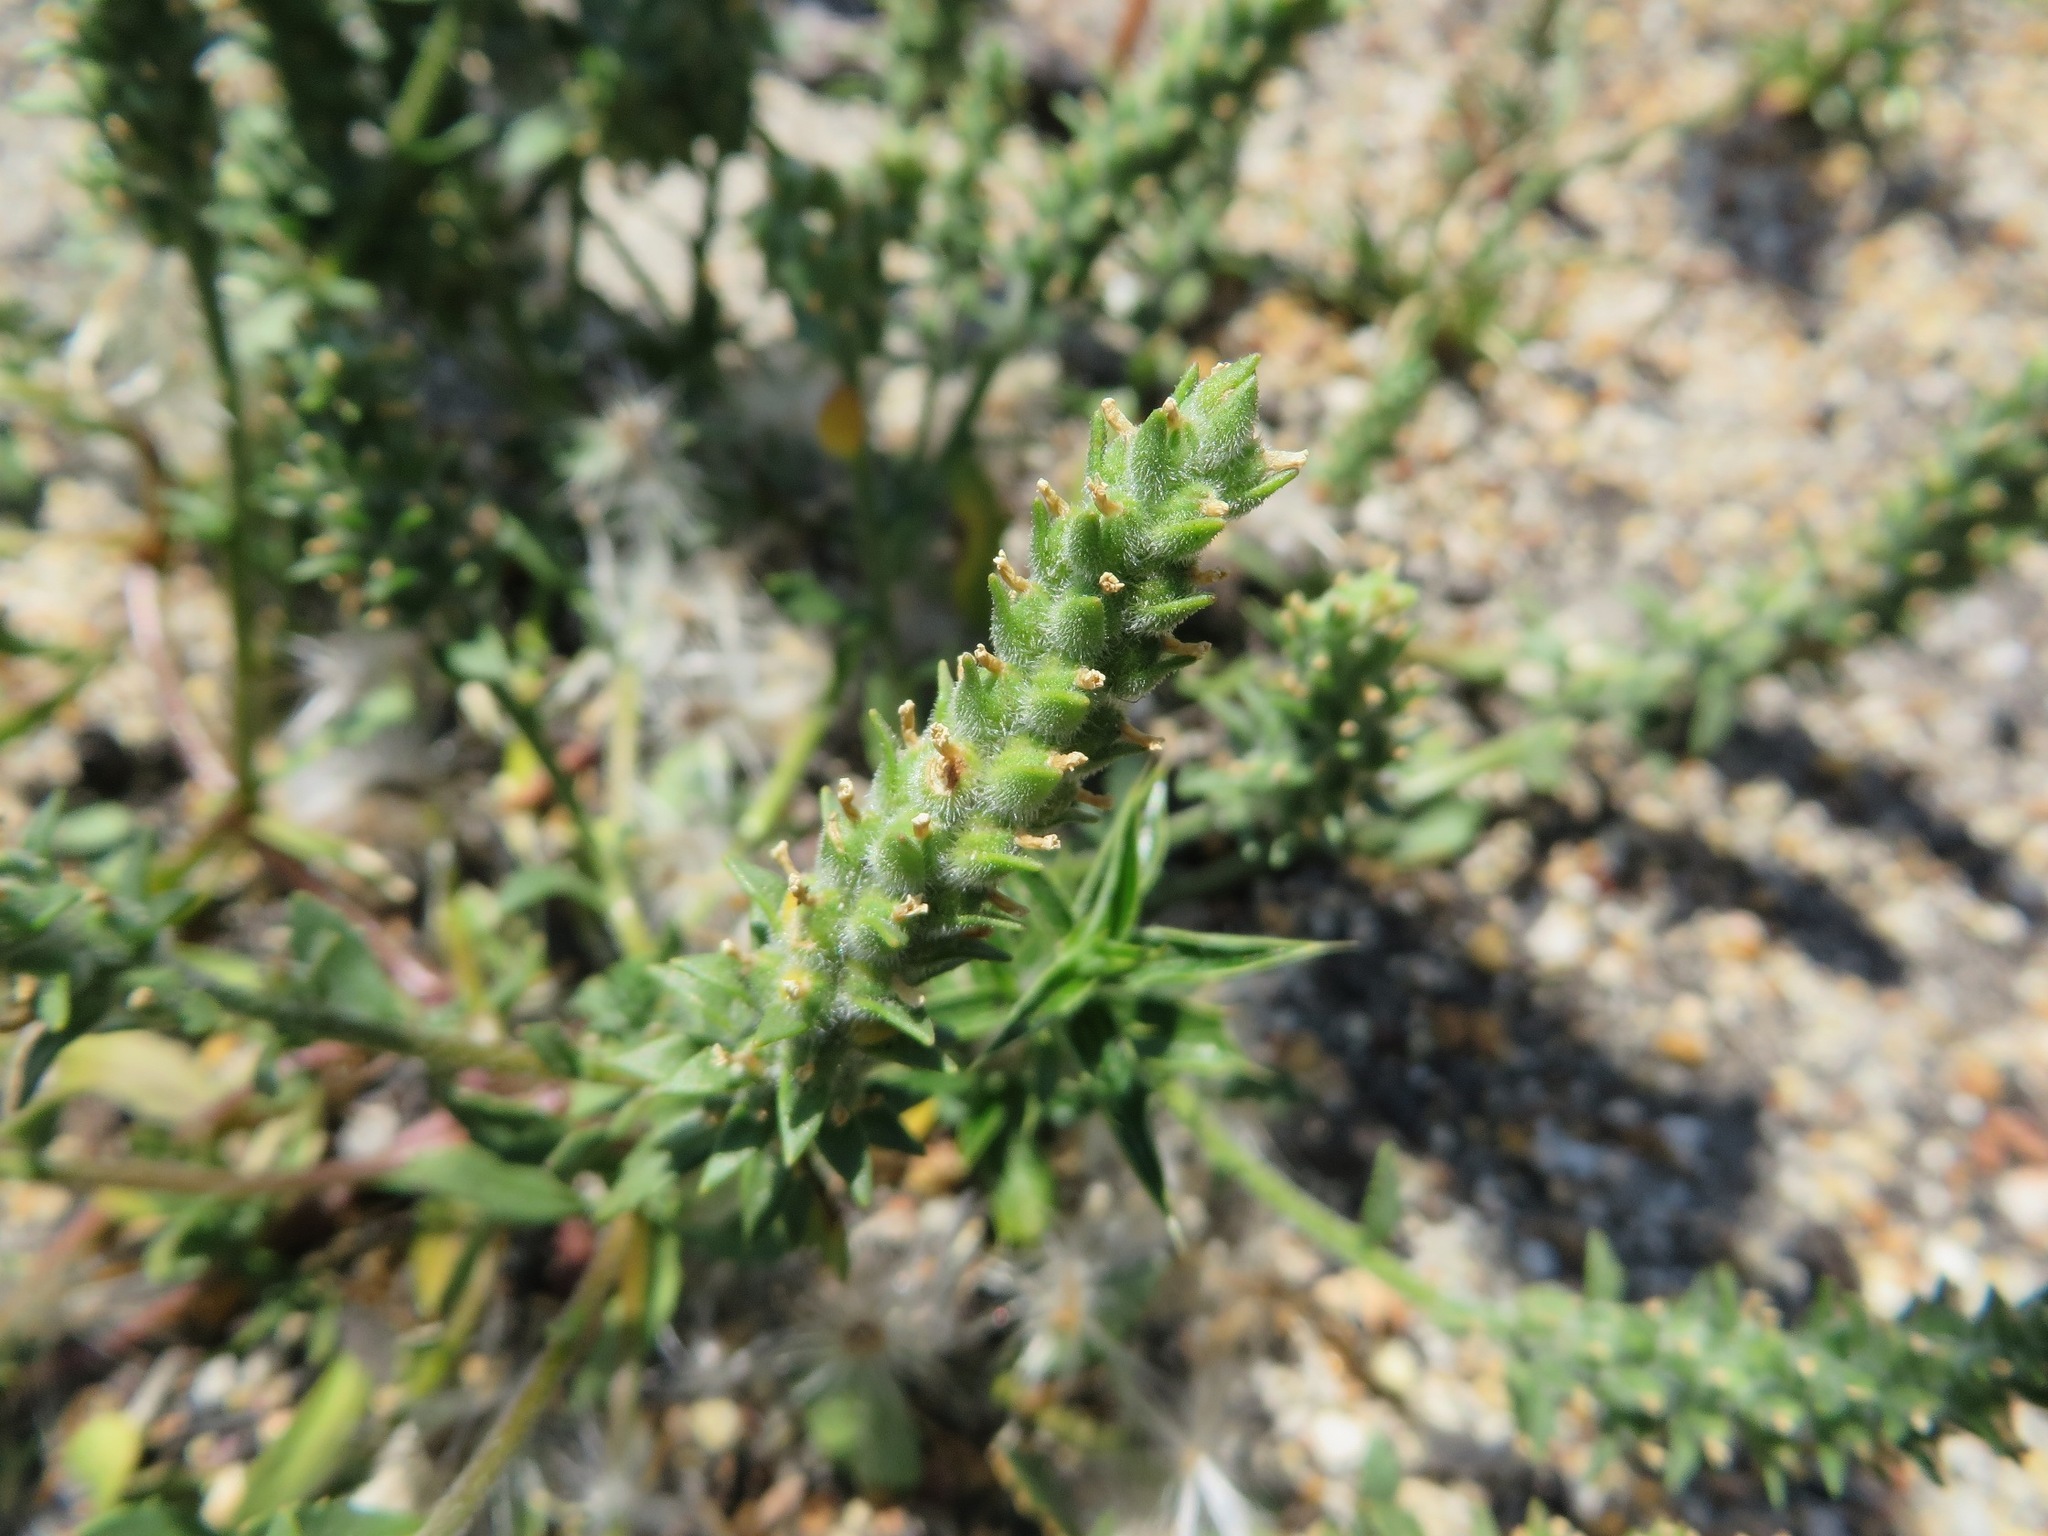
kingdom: Plantae
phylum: Tracheophyta
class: Magnoliopsida
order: Lamiales
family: Scrophulariaceae
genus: Chenopodiopsis
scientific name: Chenopodiopsis retrorsa
